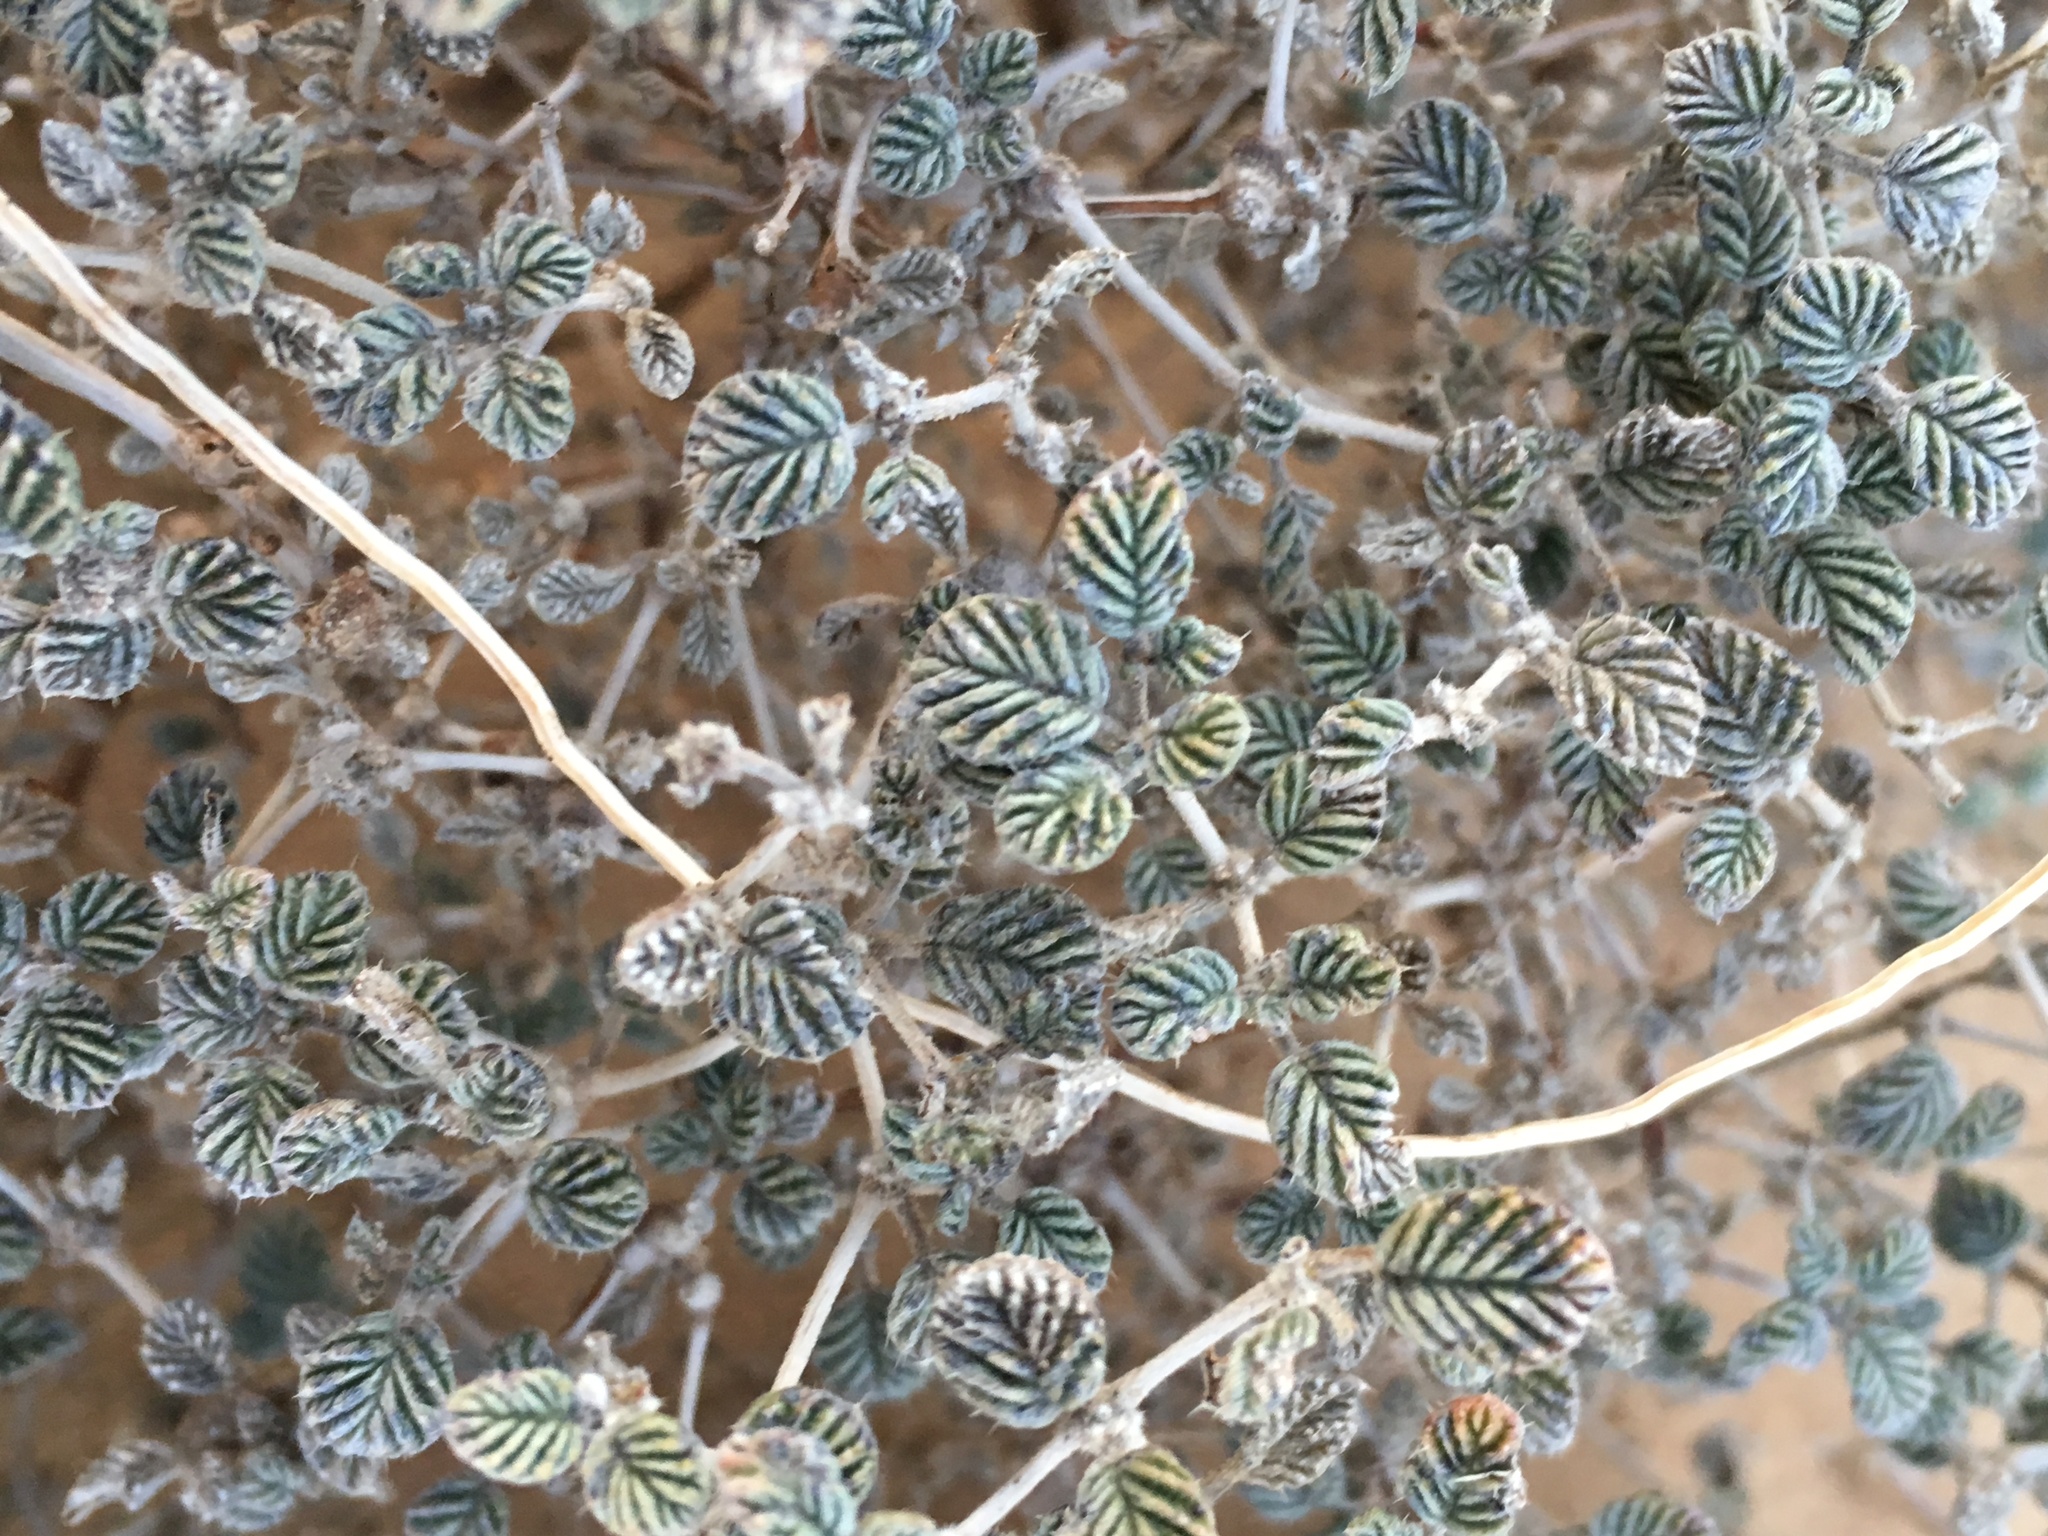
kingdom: Plantae
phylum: Tracheophyta
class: Magnoliopsida
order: Boraginales
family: Ehretiaceae
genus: Tiquilia
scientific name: Tiquilia plicata
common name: Fan-leaf tiquilia
